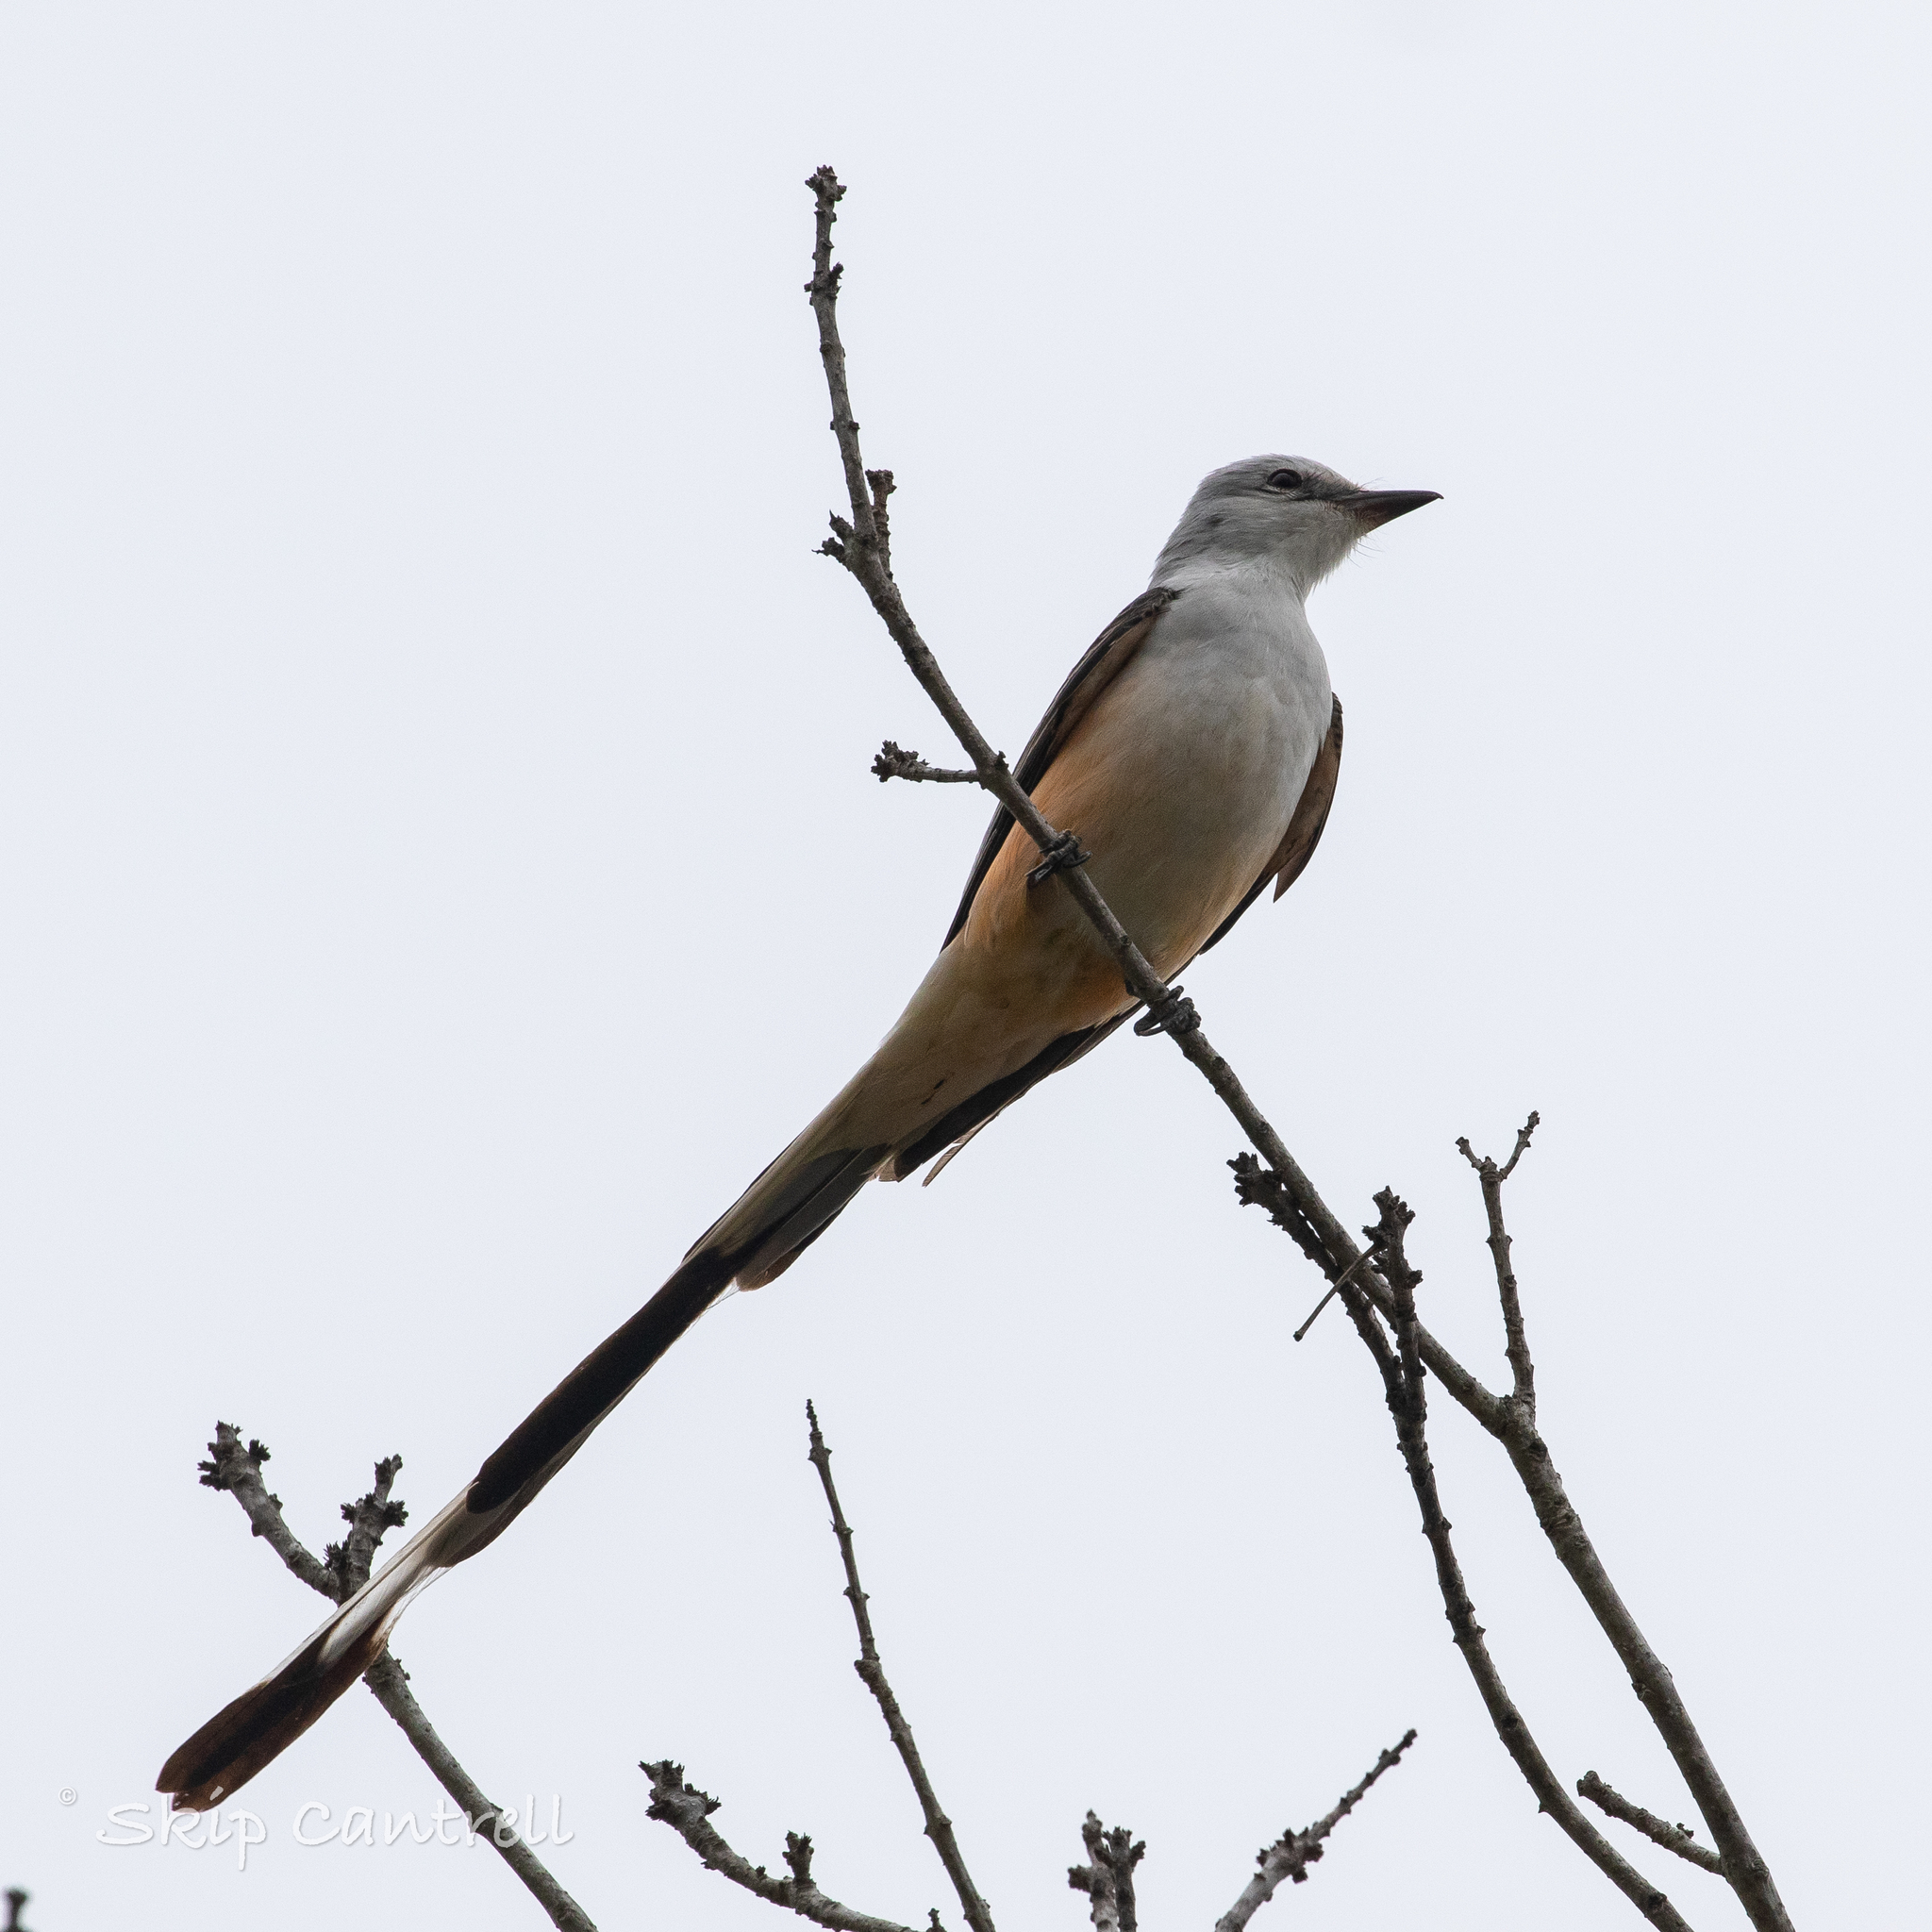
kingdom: Animalia
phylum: Chordata
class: Aves
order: Passeriformes
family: Tyrannidae
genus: Tyrannus
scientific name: Tyrannus forficatus
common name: Scissor-tailed flycatcher
